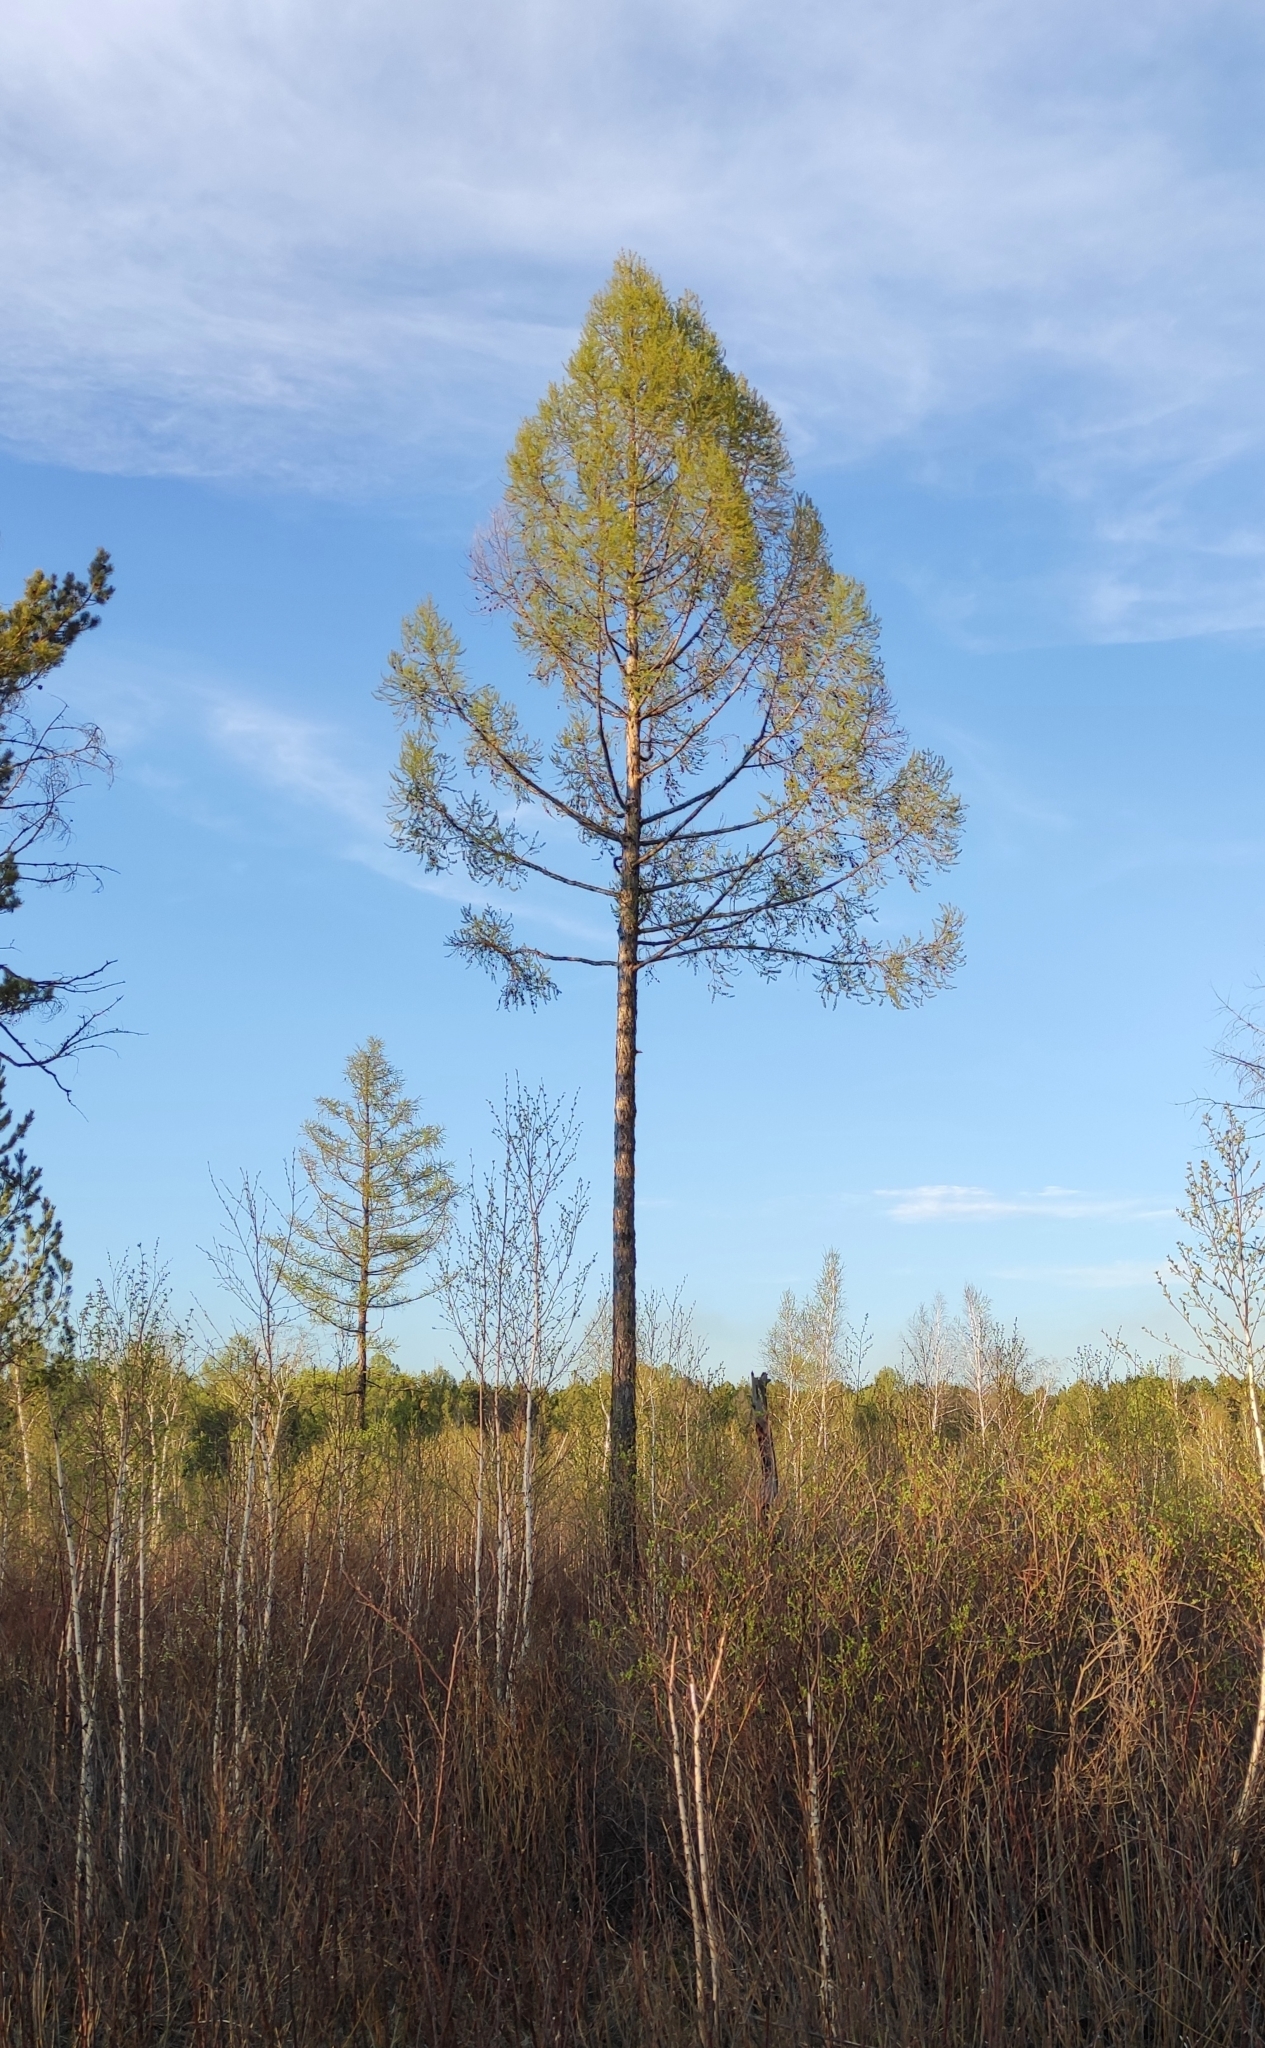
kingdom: Plantae
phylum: Tracheophyta
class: Pinopsida
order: Pinales
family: Pinaceae
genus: Larix
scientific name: Larix sibirica
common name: Siberian larch
